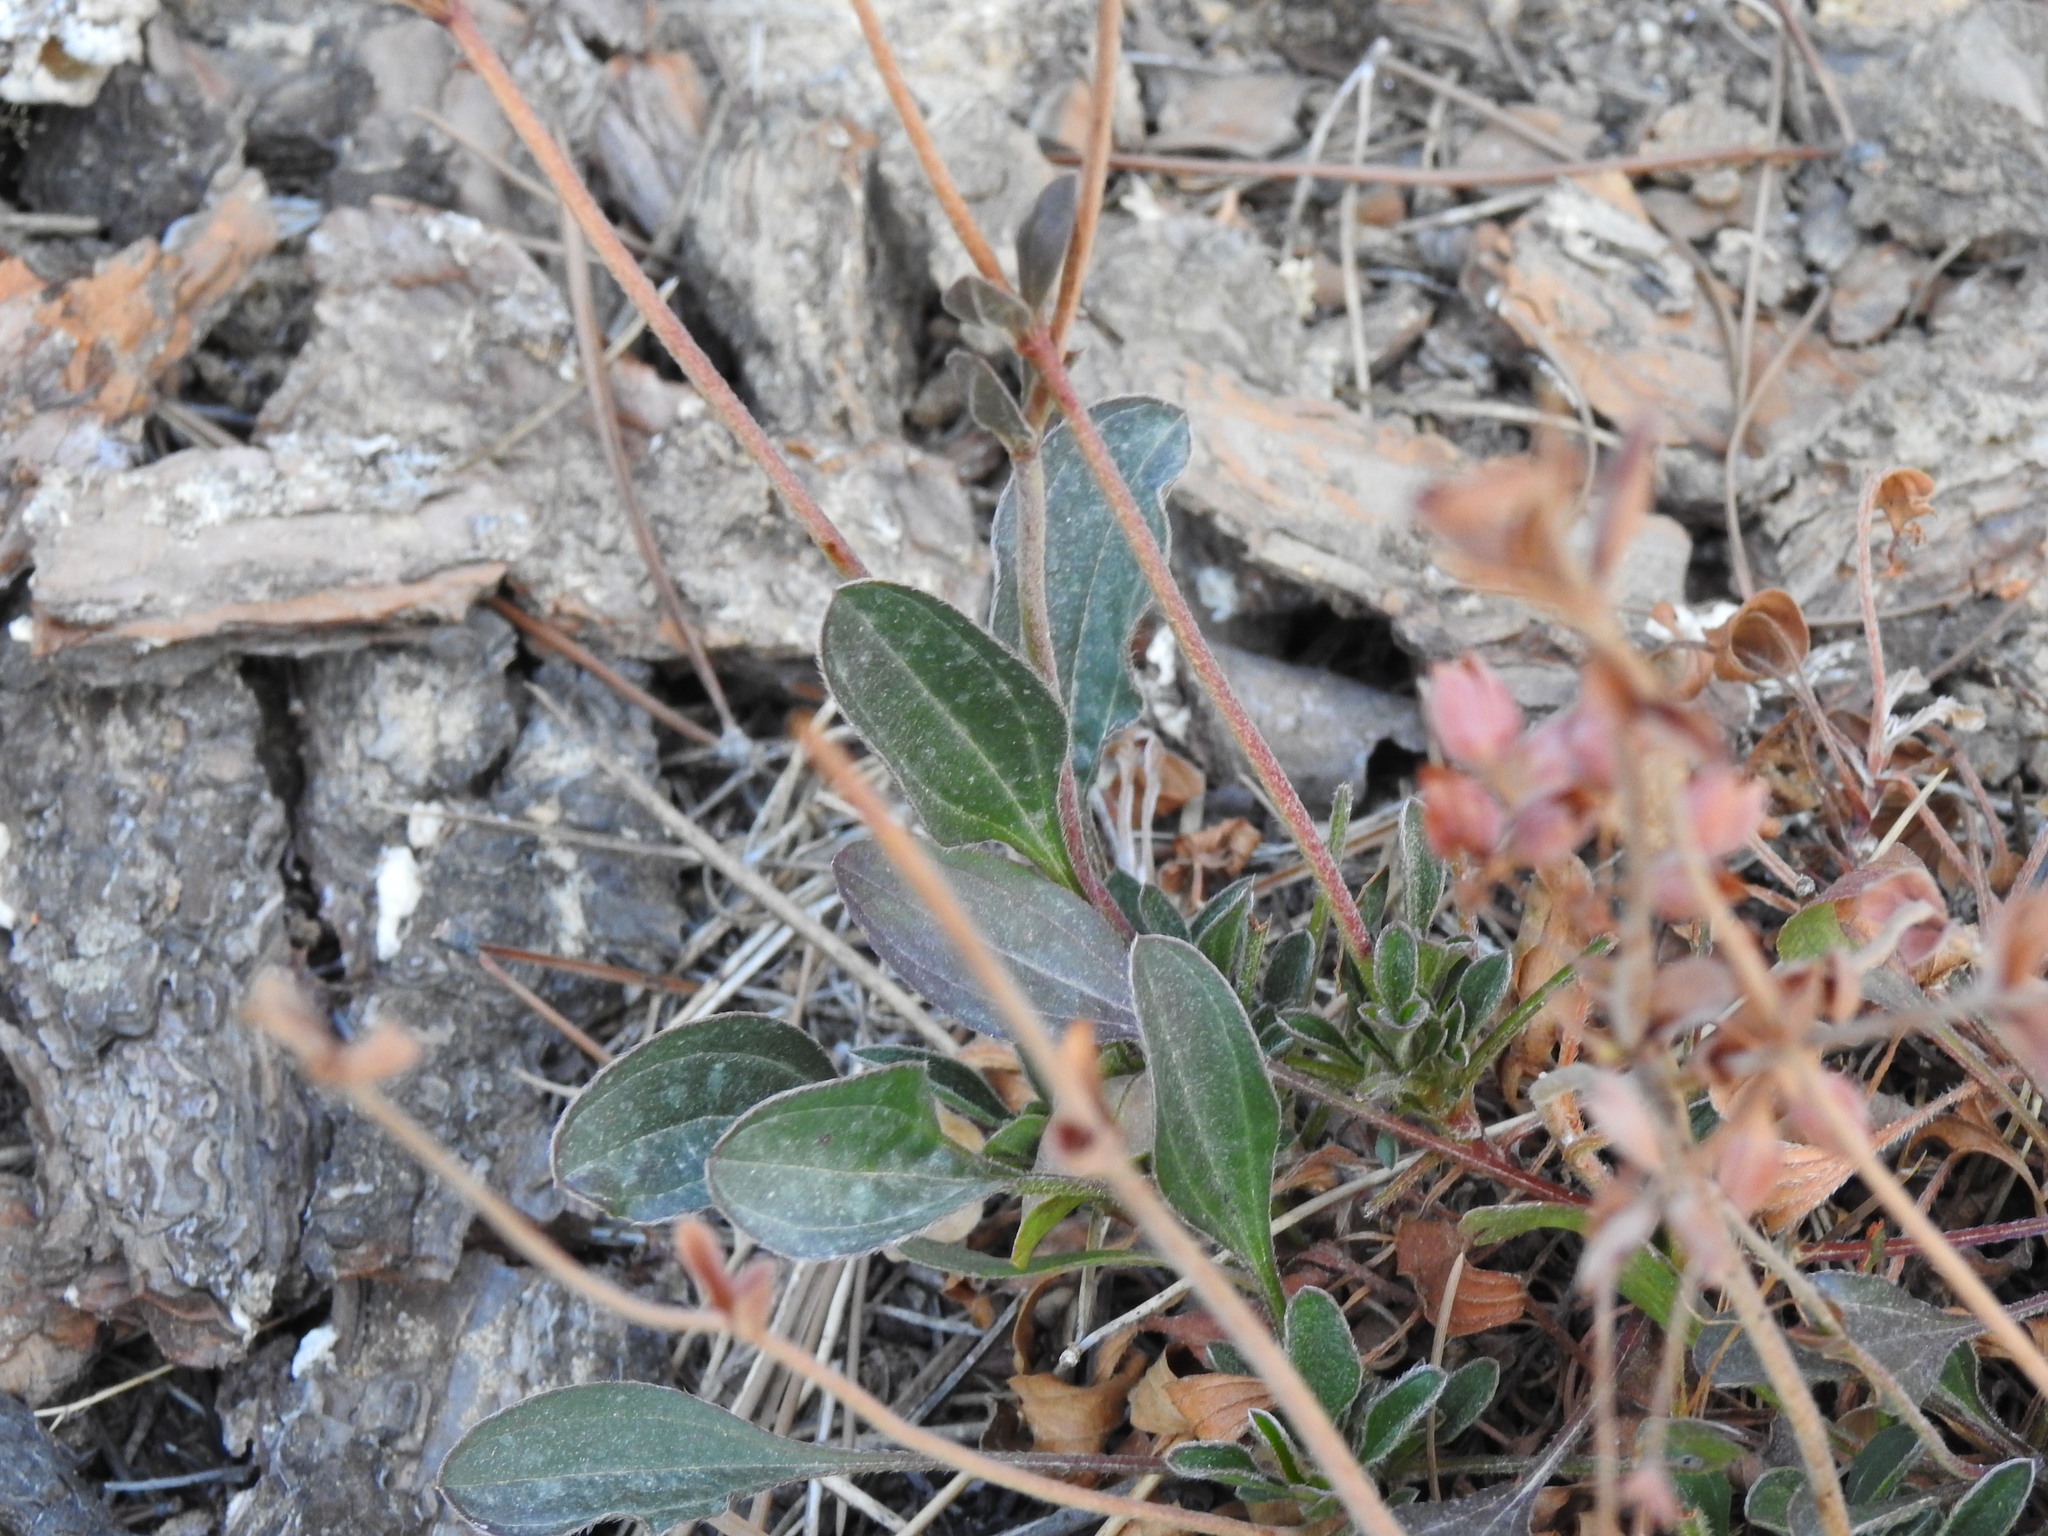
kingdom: Plantae
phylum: Tracheophyta
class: Magnoliopsida
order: Malvales
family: Cistaceae
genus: Tuberaria
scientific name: Tuberaria globulariifolia
